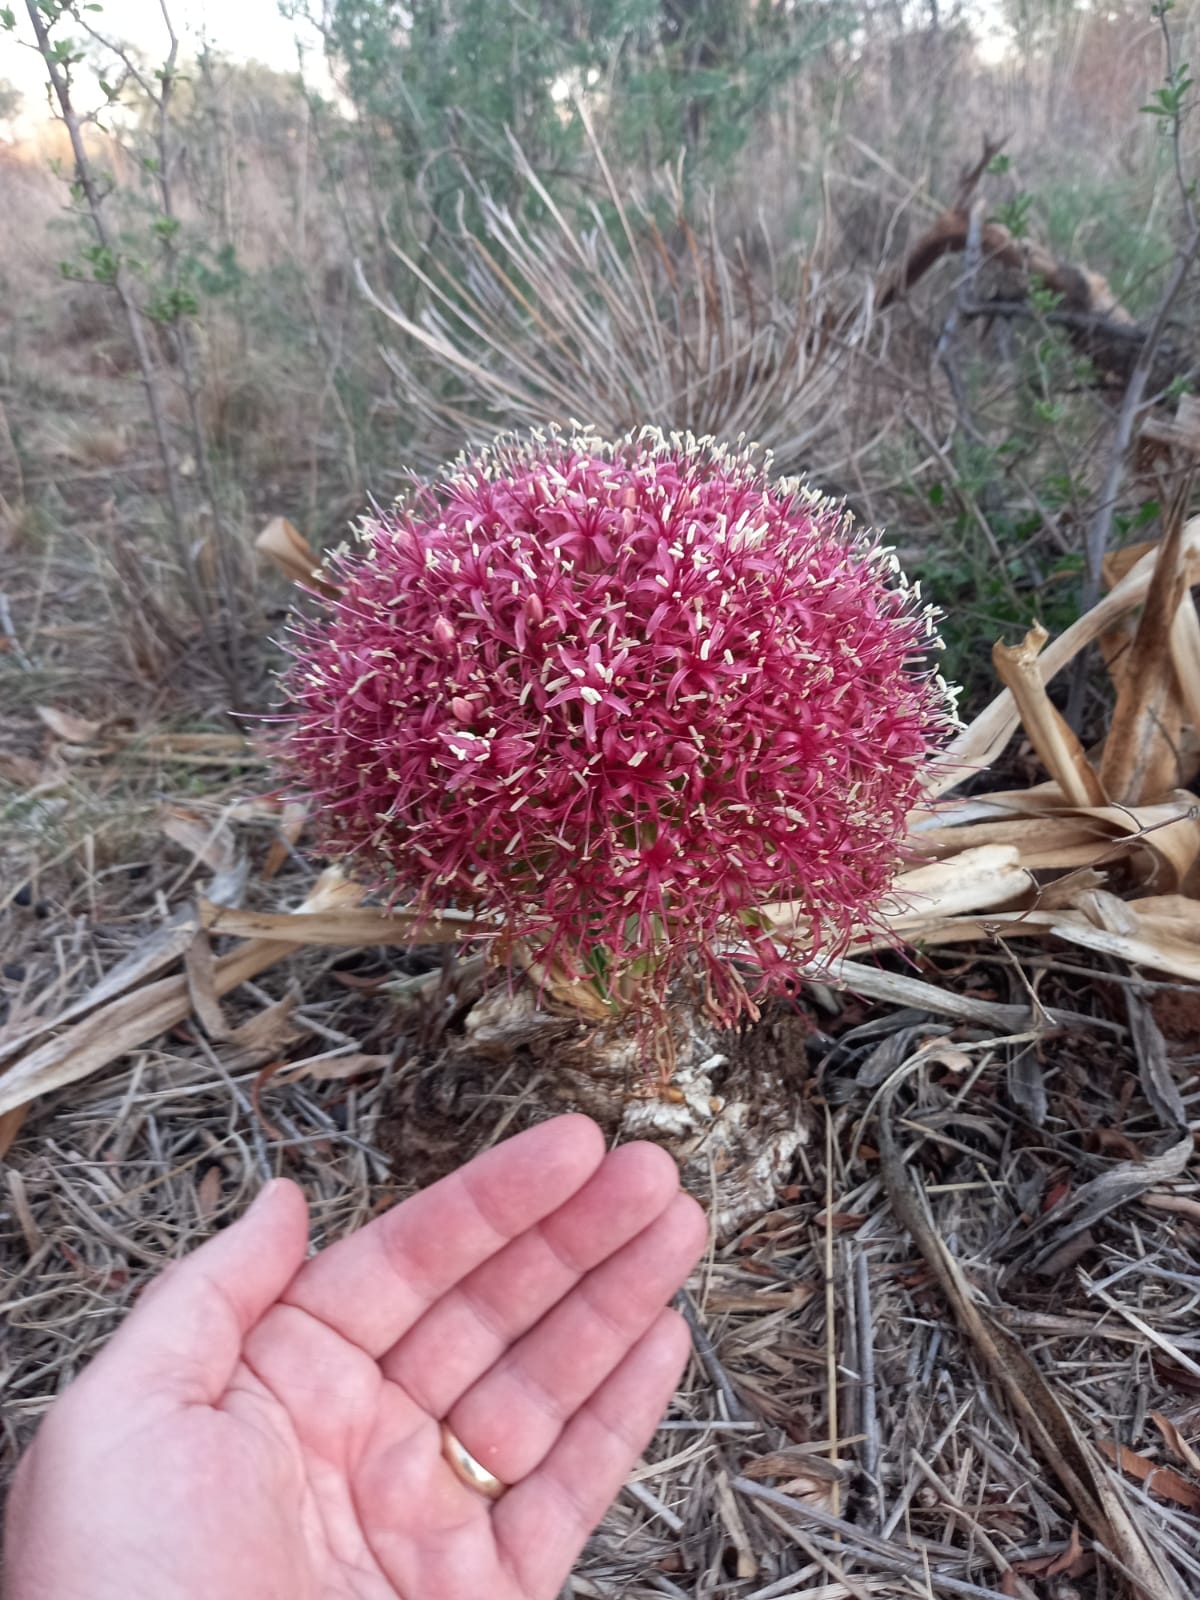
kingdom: Plantae
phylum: Tracheophyta
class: Liliopsida
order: Asparagales
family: Amaryllidaceae
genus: Boophone
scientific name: Boophone disticha
